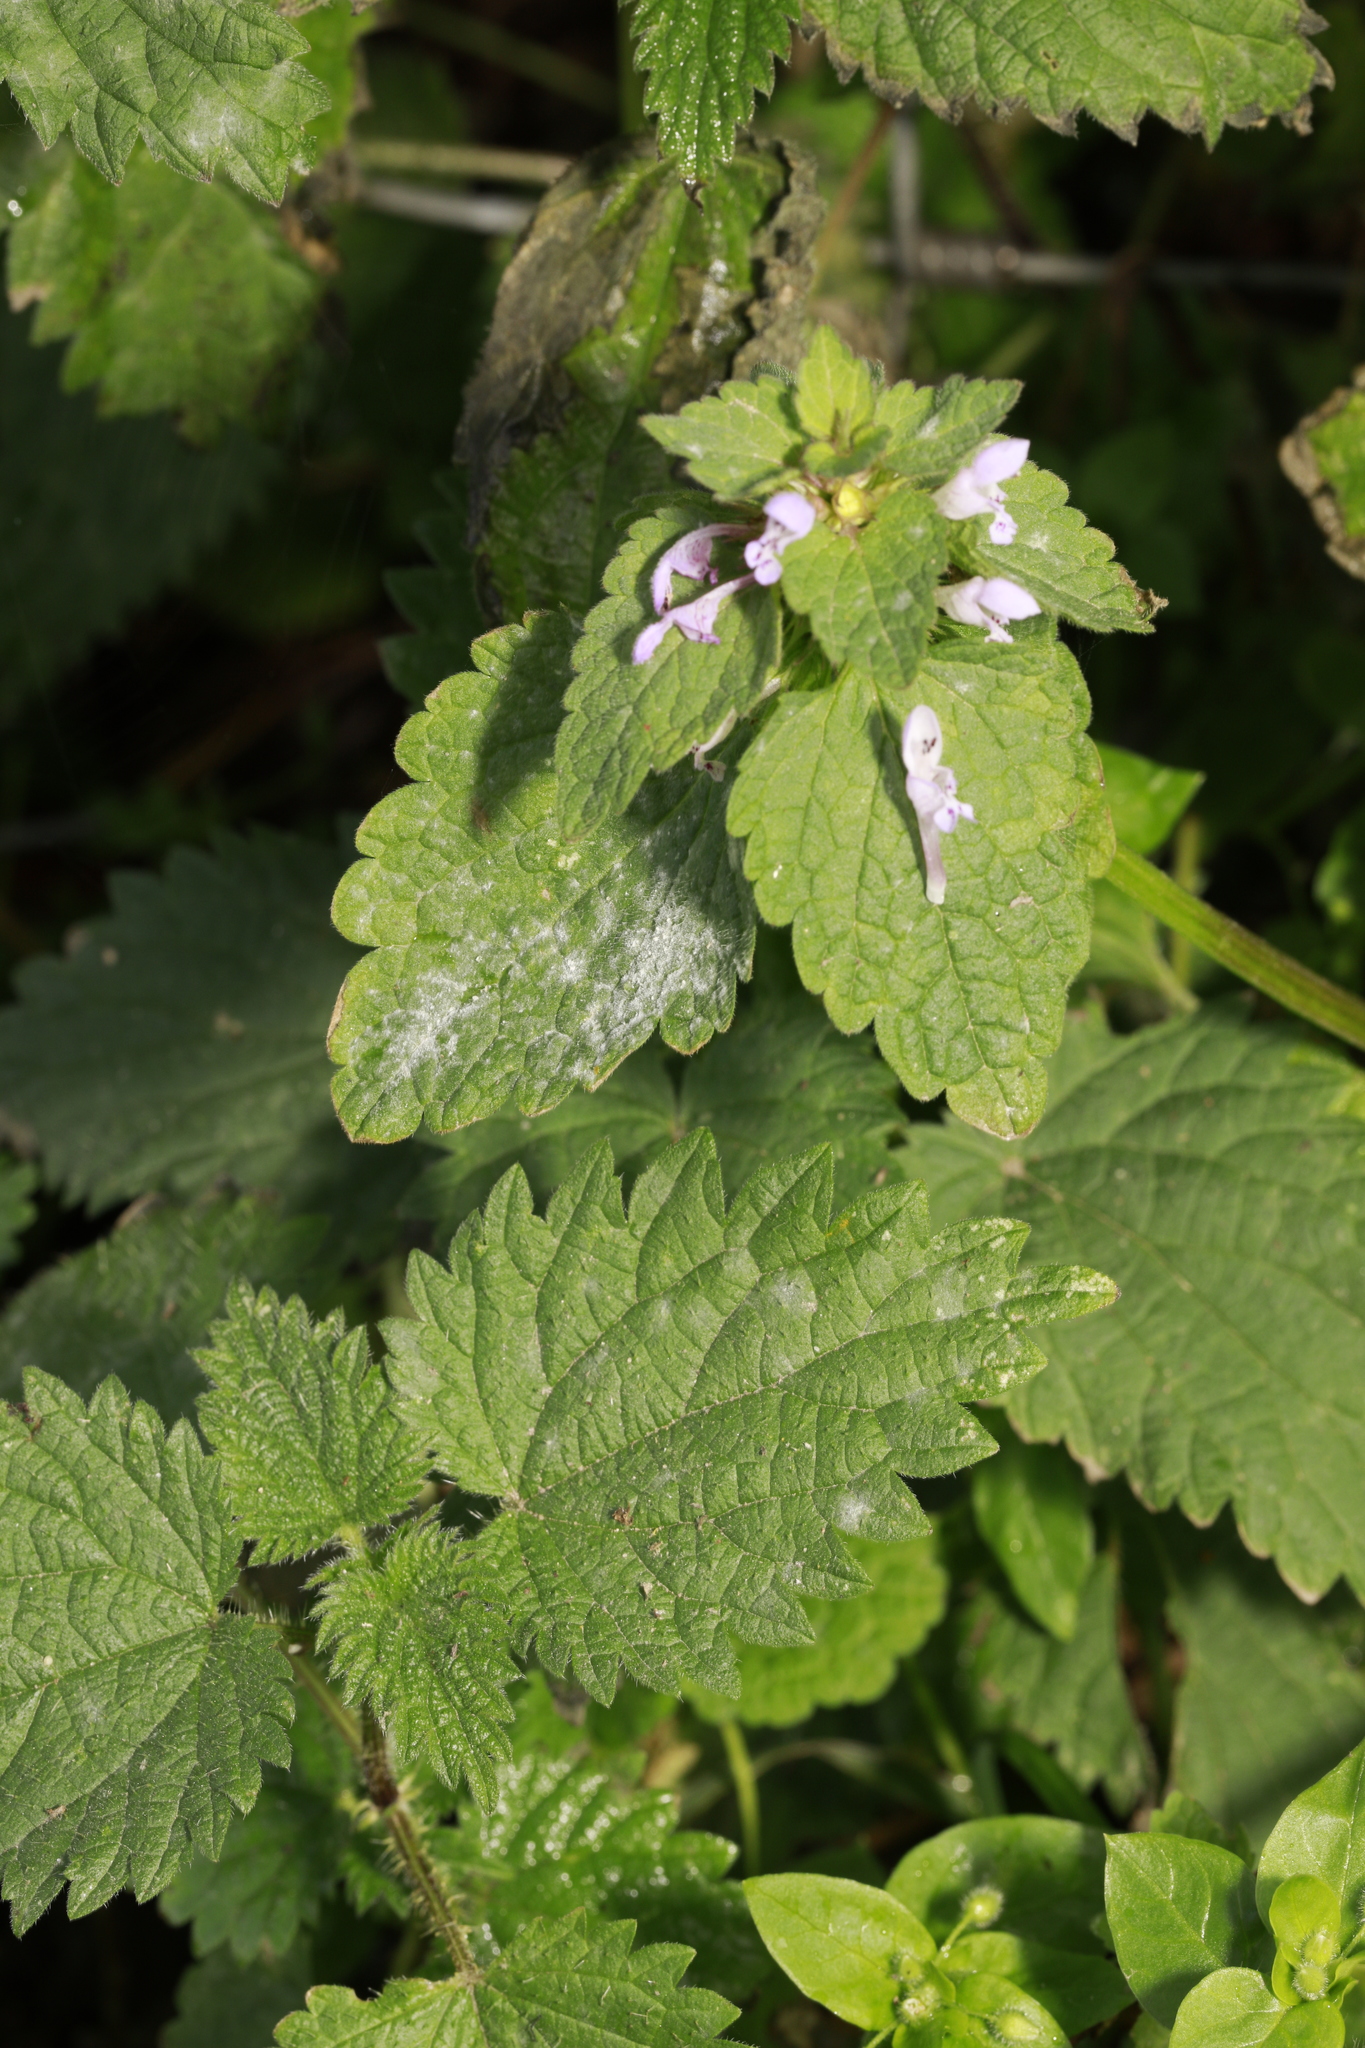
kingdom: Fungi
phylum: Ascomycota
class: Leotiomycetes
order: Helotiales
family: Erysiphaceae
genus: Neoerysiphe
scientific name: Neoerysiphe galeopsidis
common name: Mint mildew
